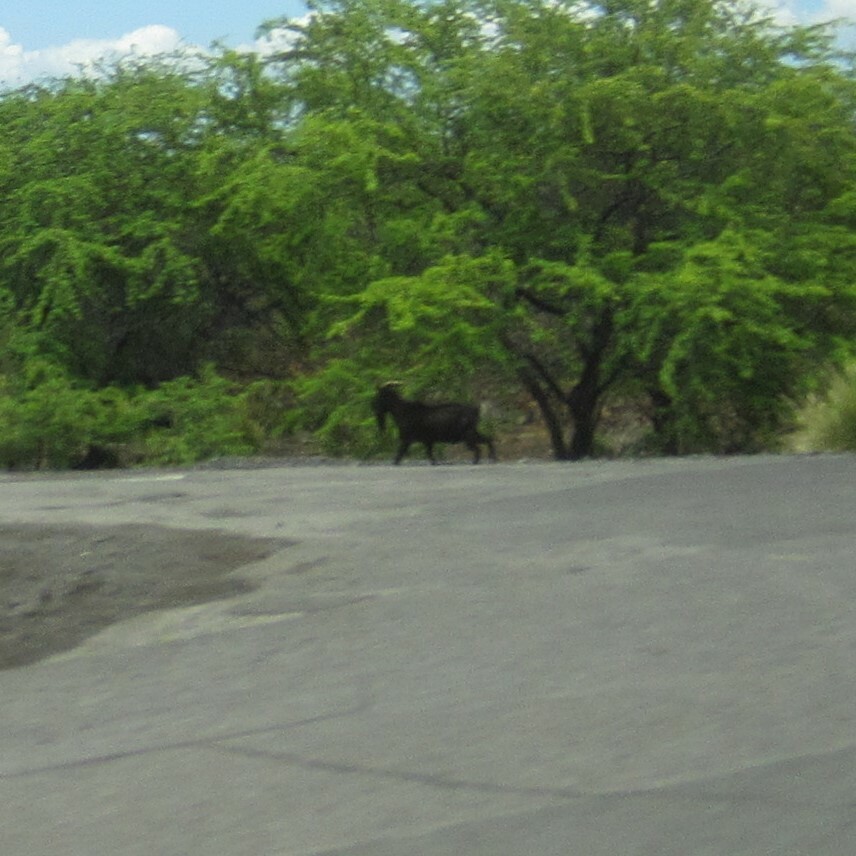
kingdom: Animalia
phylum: Chordata
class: Mammalia
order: Artiodactyla
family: Bovidae
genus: Capra
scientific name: Capra hircus
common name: Domestic goat
